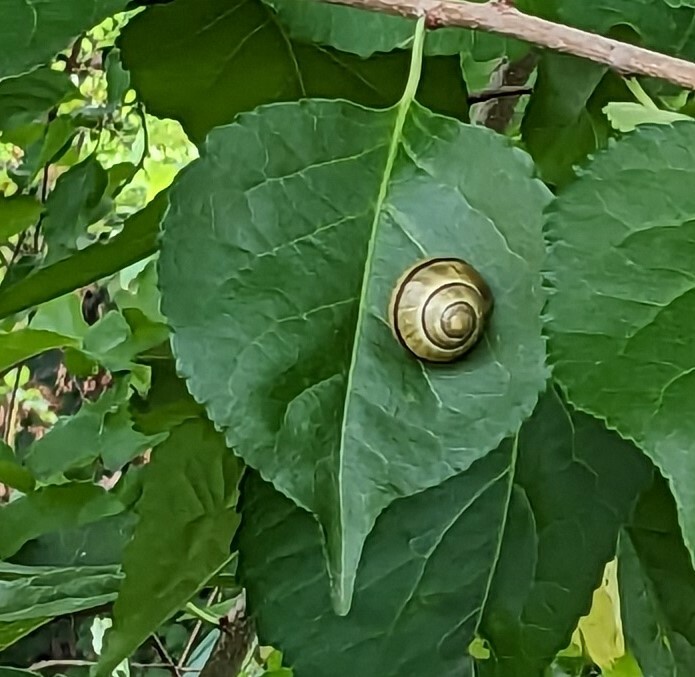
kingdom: Animalia
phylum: Mollusca
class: Gastropoda
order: Stylommatophora
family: Helicidae
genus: Cepaea
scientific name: Cepaea nemoralis
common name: Grovesnail
